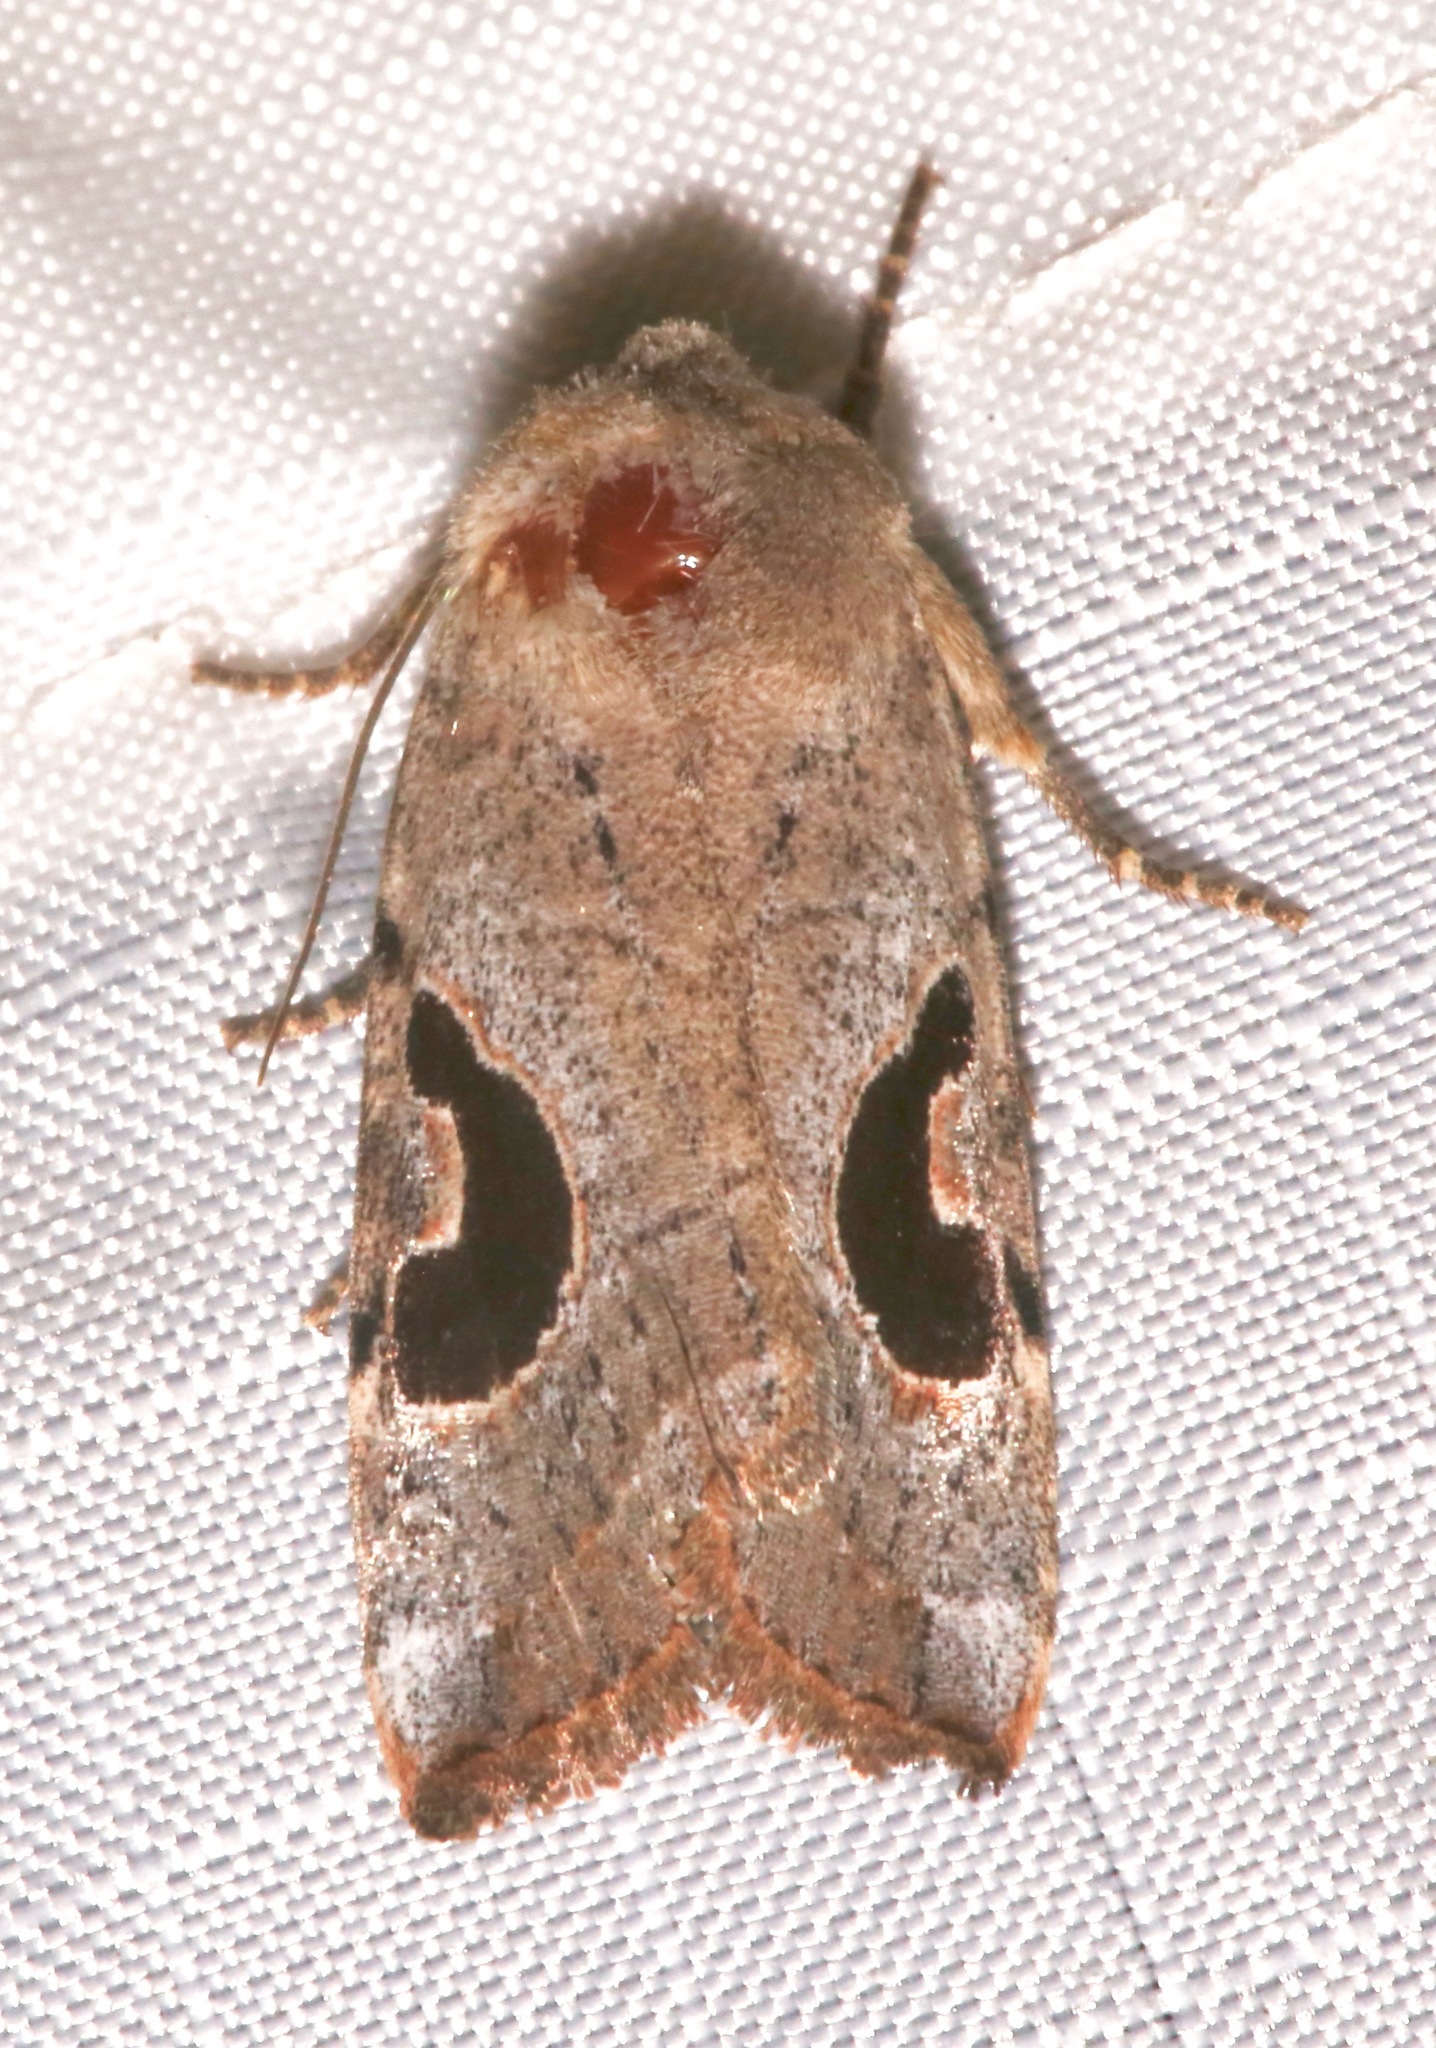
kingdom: Animalia
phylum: Arthropoda
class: Insecta
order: Lepidoptera
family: Noctuidae
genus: Eriopyga
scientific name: Eriopyga lunata
